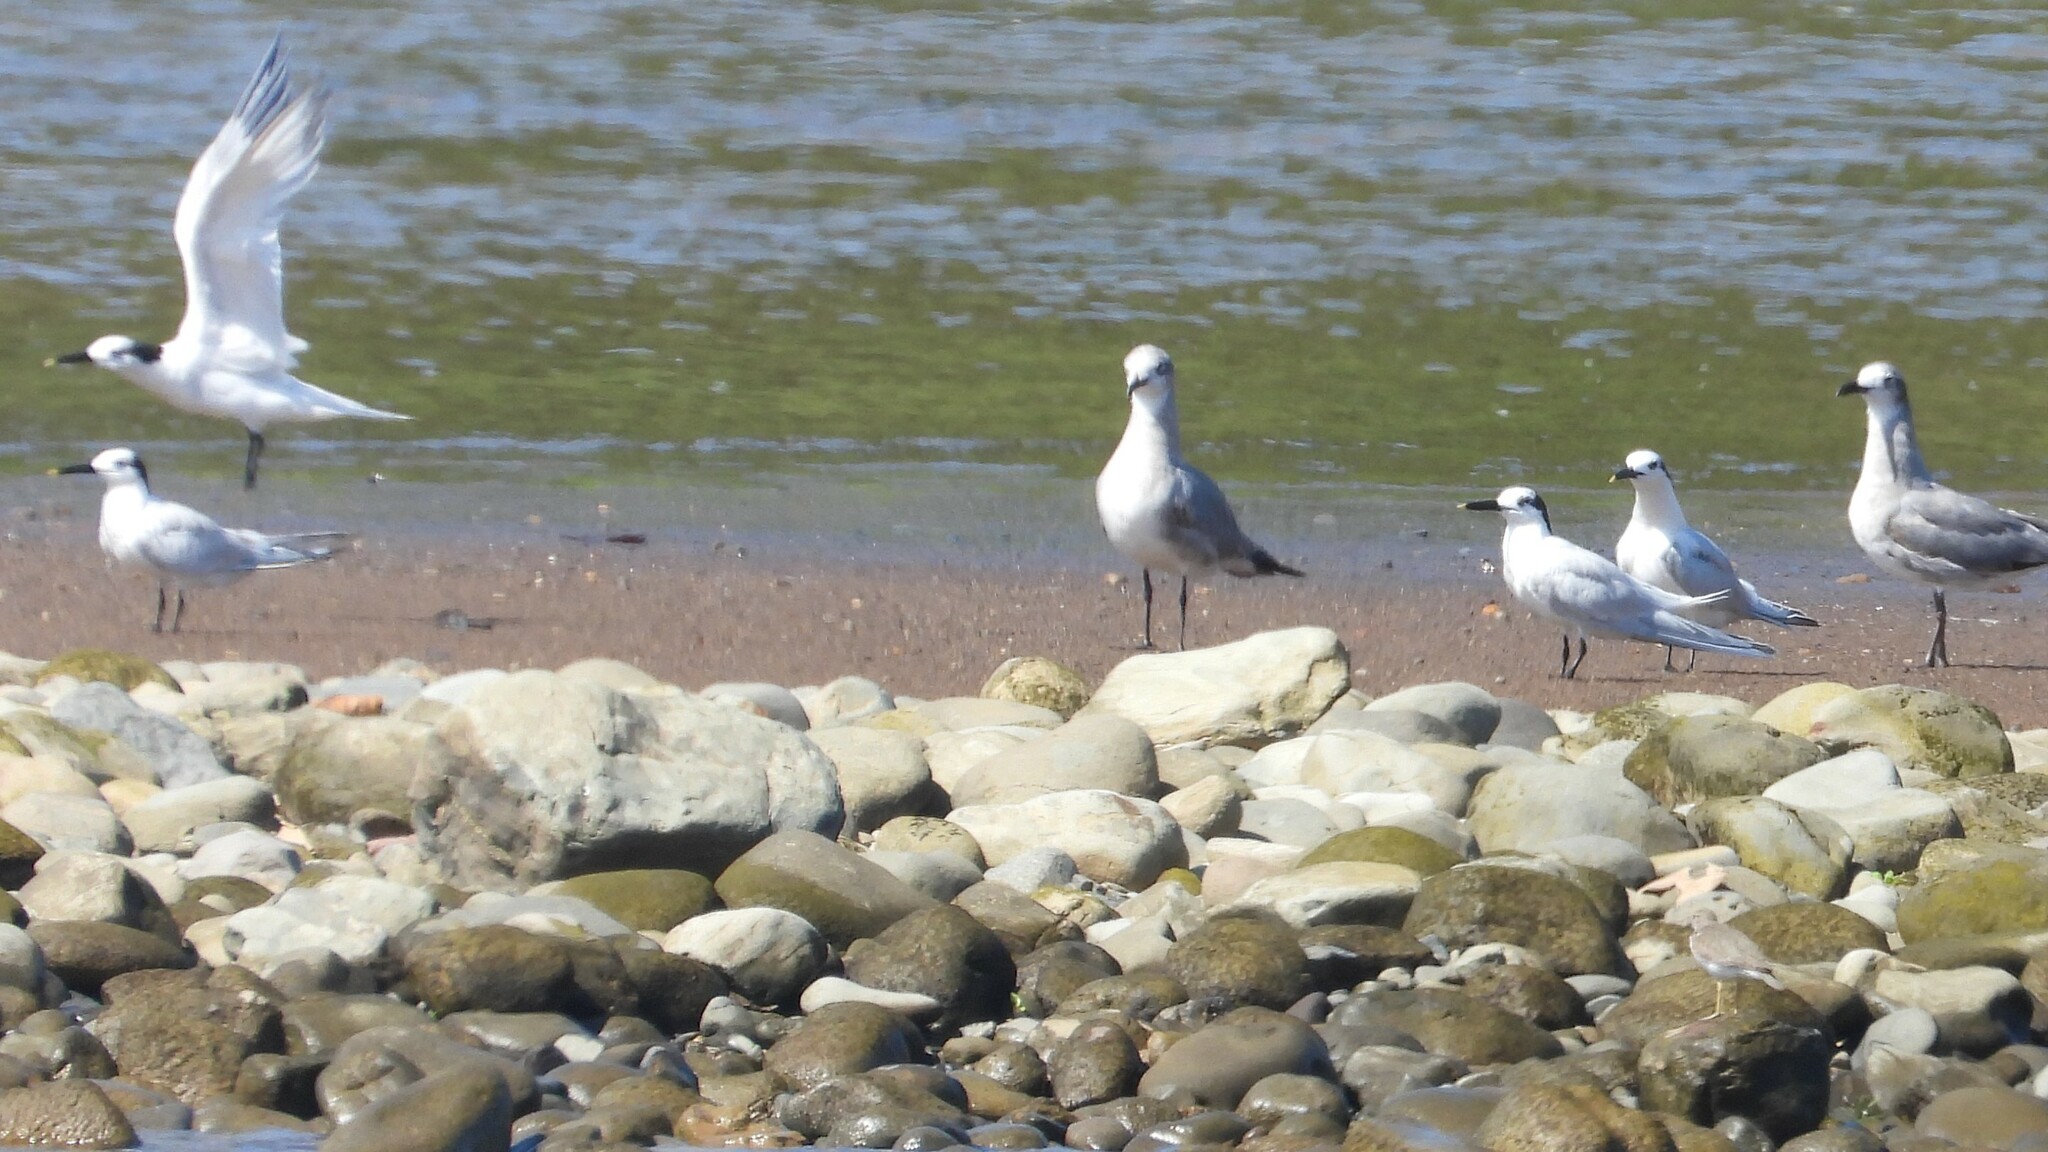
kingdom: Animalia
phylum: Chordata
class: Aves
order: Charadriiformes
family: Laridae
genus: Thalasseus
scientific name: Thalasseus sandvicensis
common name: Sandwich tern
